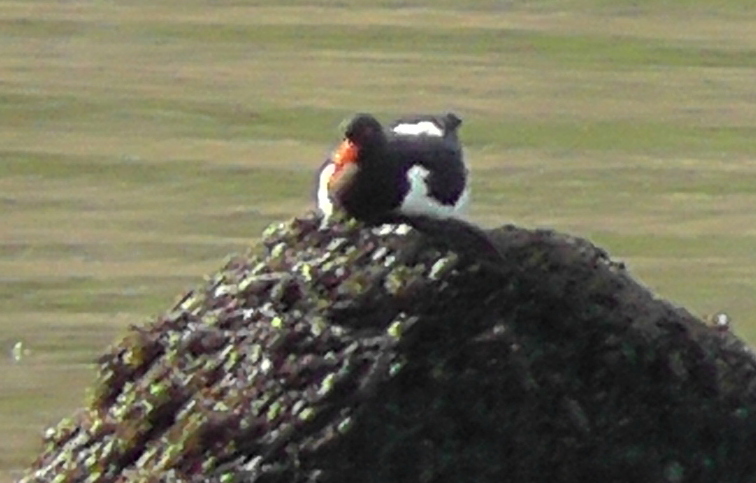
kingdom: Animalia
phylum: Chordata
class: Aves
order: Charadriiformes
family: Haematopodidae
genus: Haematopus
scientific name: Haematopus ostralegus
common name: Eurasian oystercatcher
